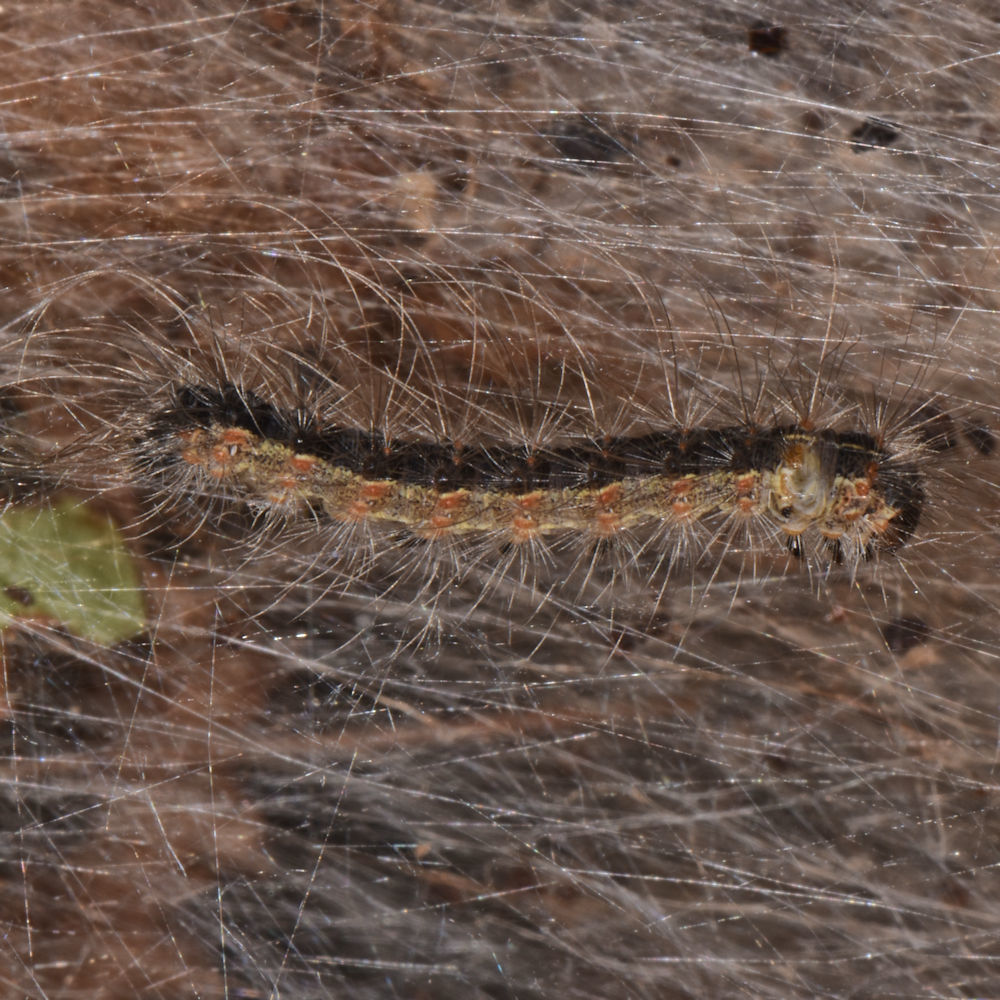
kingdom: Animalia
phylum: Arthropoda
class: Insecta
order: Lepidoptera
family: Erebidae
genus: Hyphantria
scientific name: Hyphantria cunea
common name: American white moth
